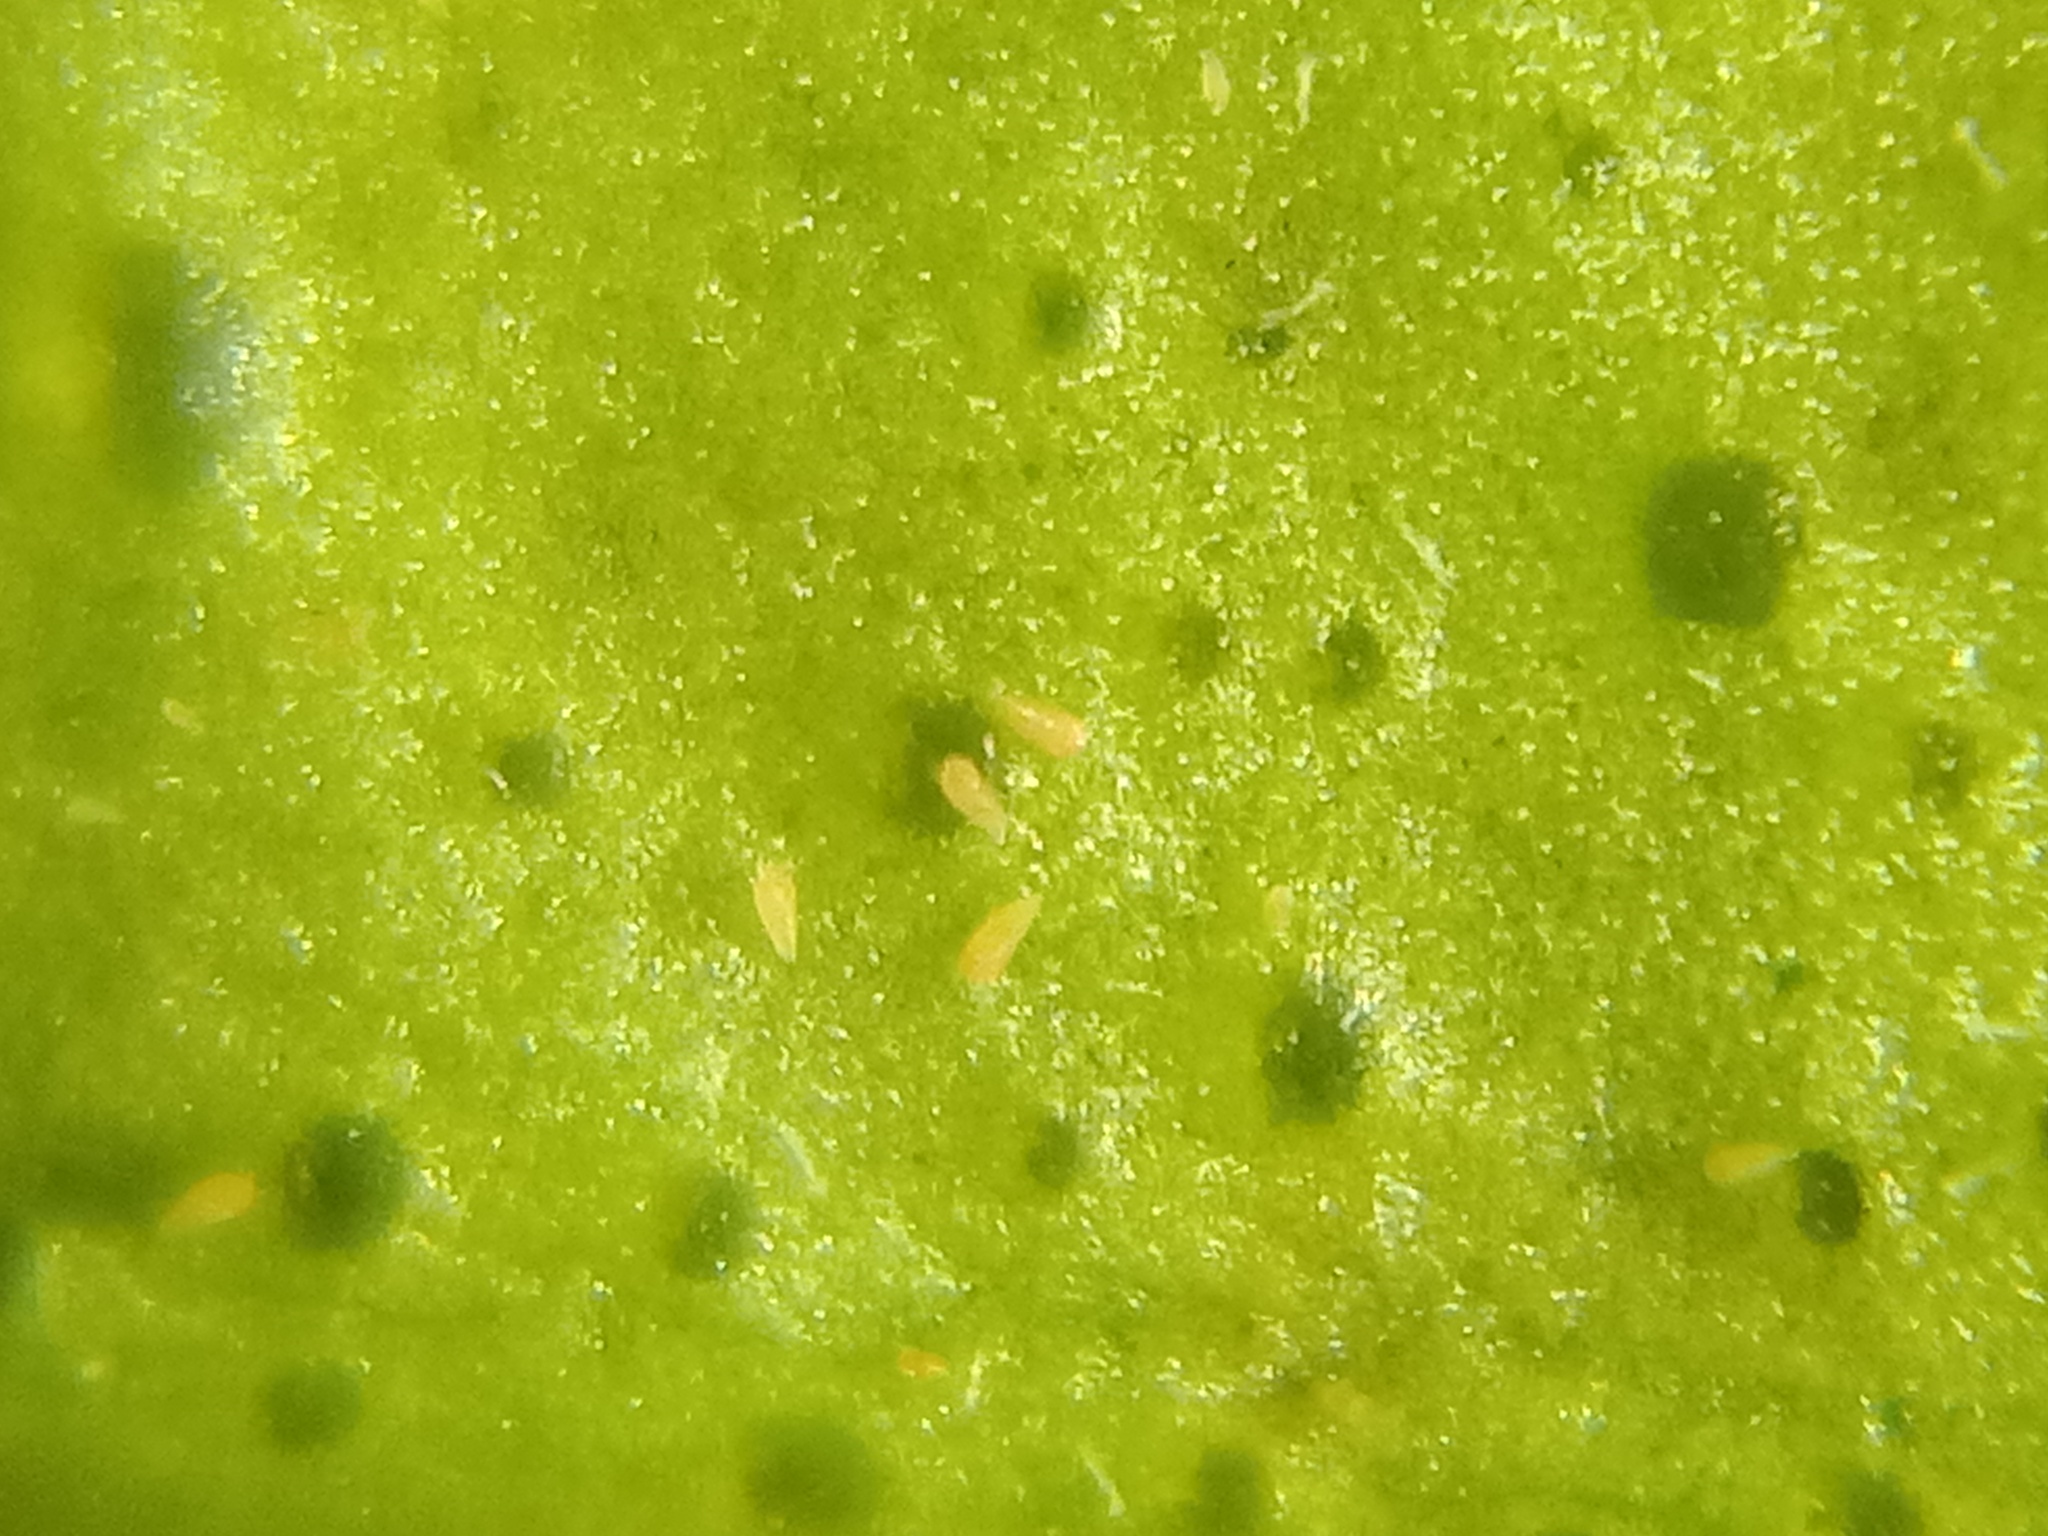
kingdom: Animalia
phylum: Arthropoda
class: Arachnida
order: Trombidiformes
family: Eriophyidae
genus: Phyllocoptruta
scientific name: Phyllocoptruta oleivora
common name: Citrus rust mite
